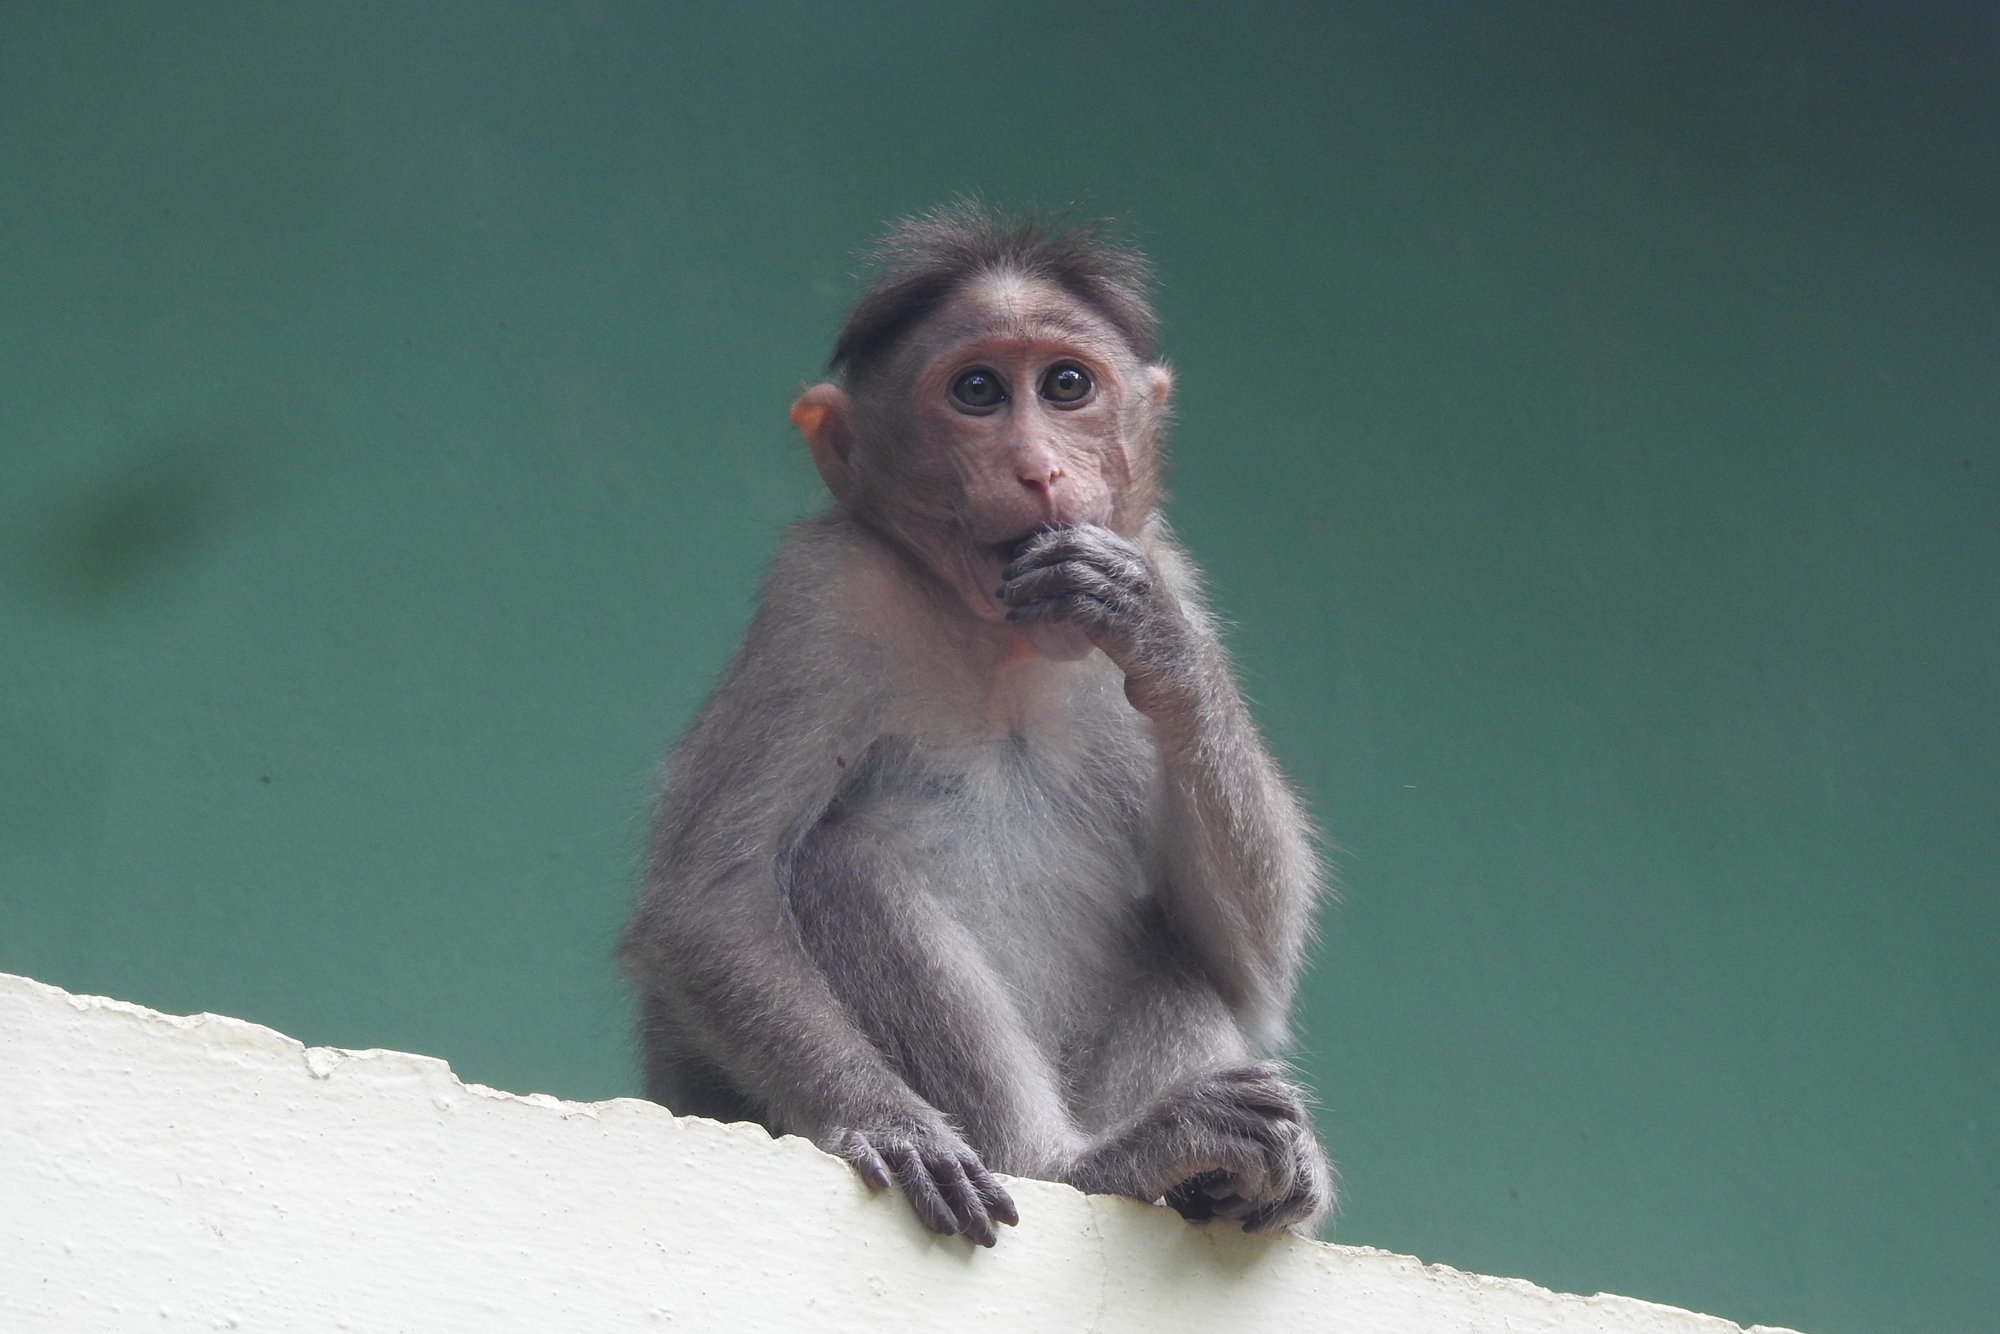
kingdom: Animalia
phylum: Chordata
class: Mammalia
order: Primates
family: Cercopithecidae
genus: Macaca
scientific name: Macaca radiata
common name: Bonnet macaque
